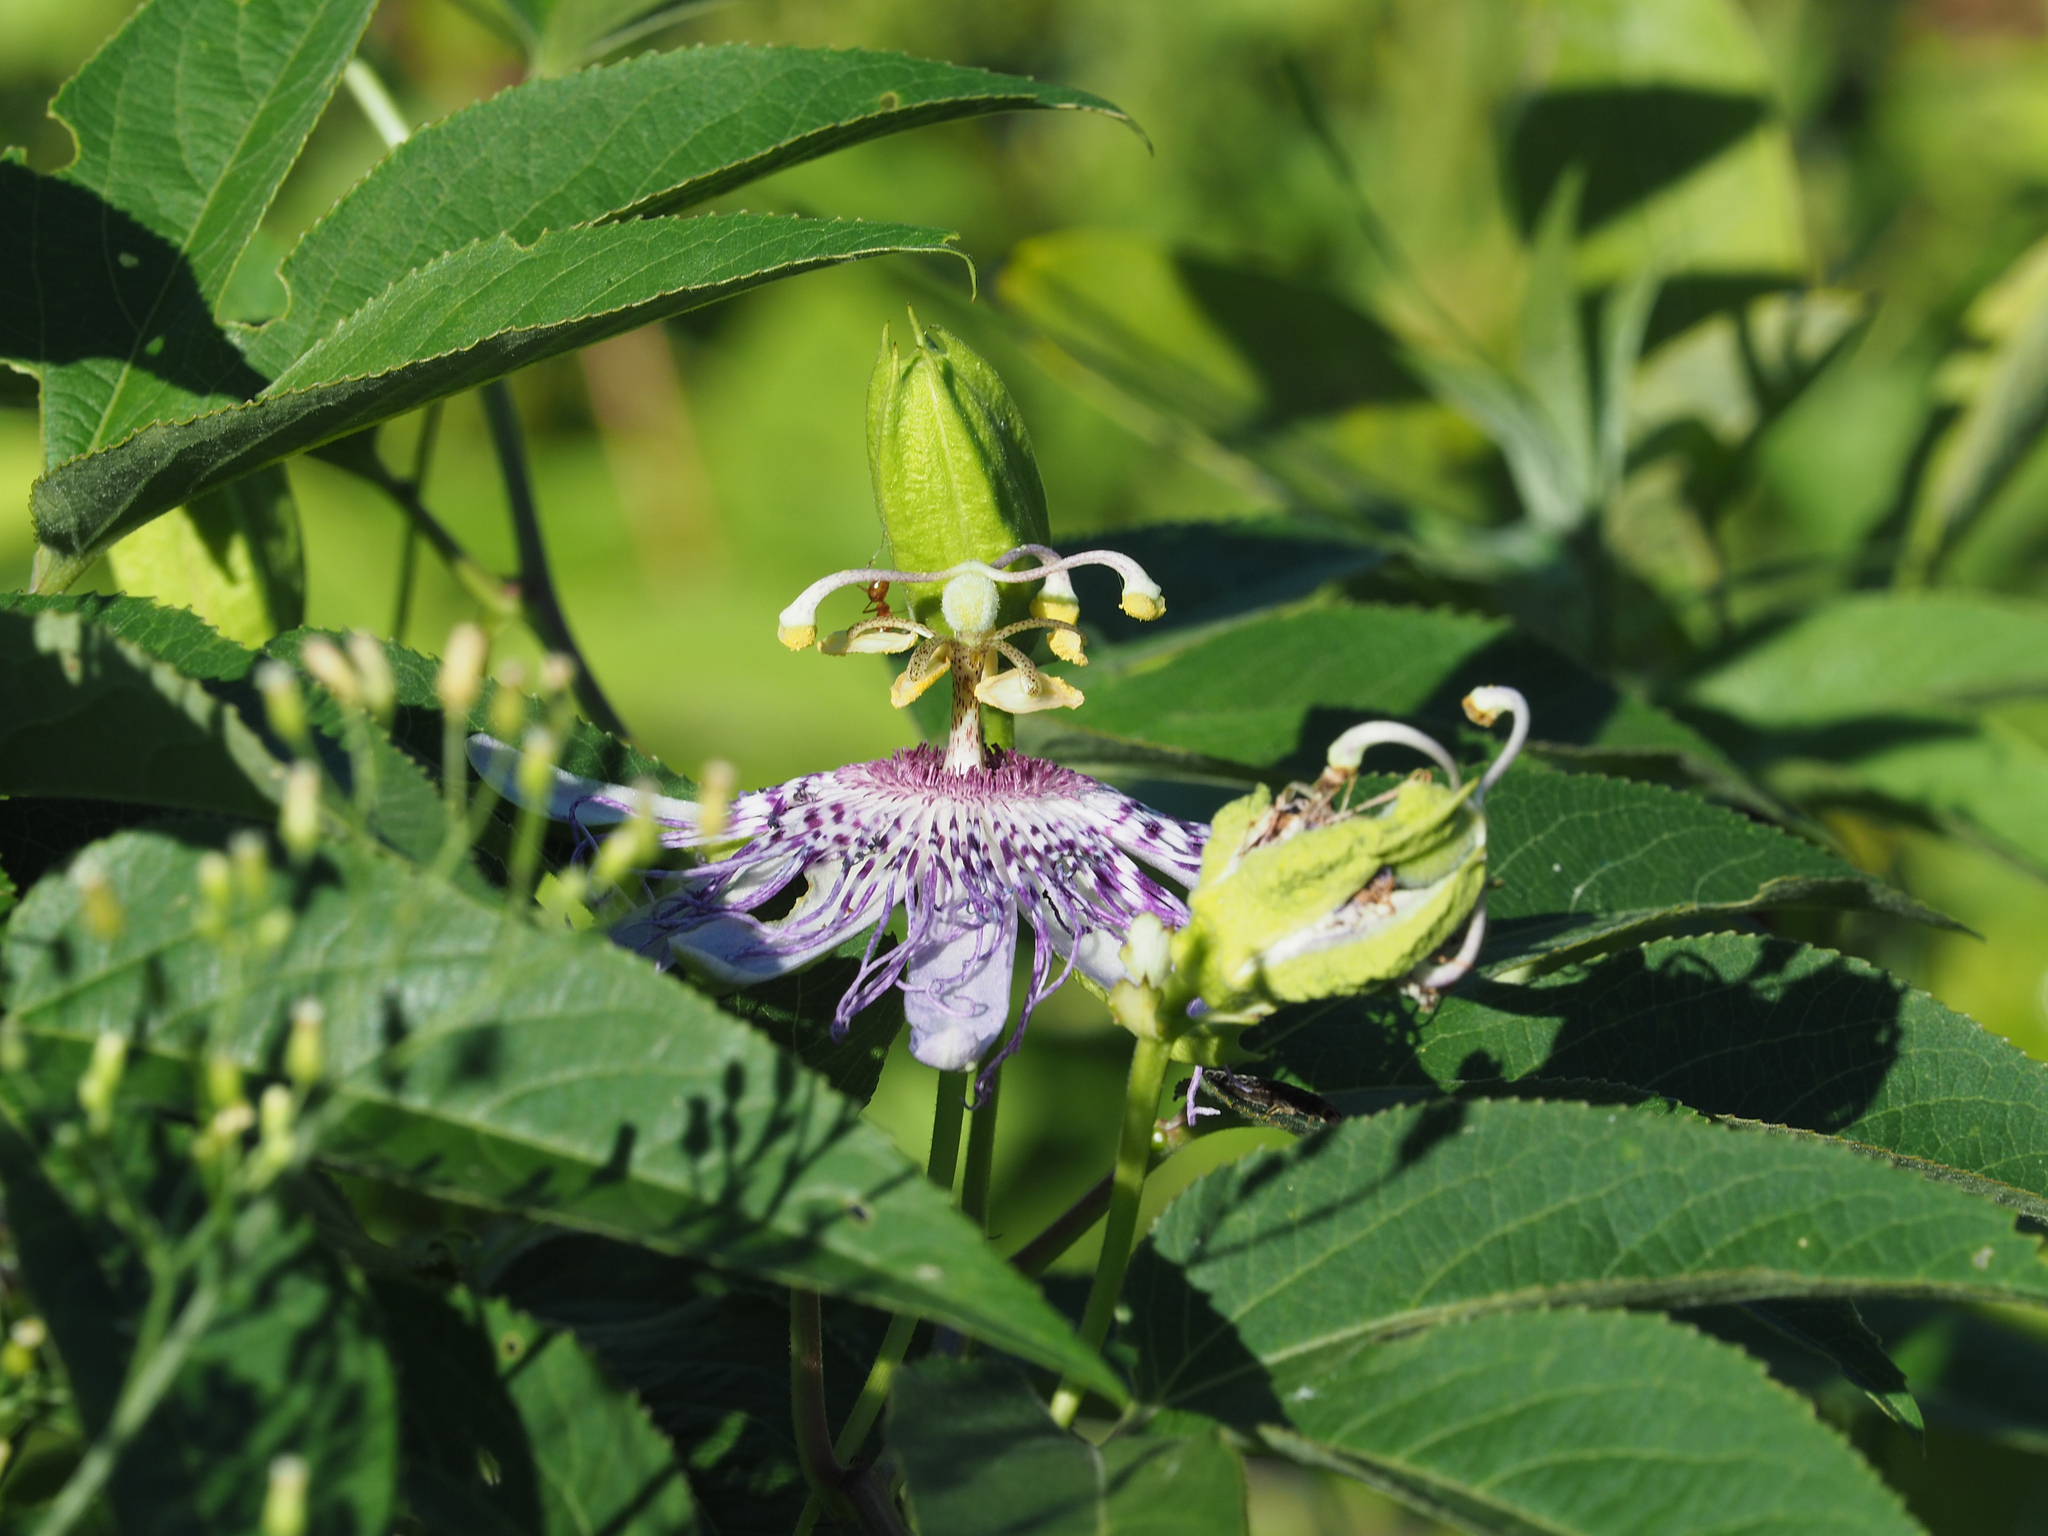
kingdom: Plantae
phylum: Tracheophyta
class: Magnoliopsida
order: Malpighiales
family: Passifloraceae
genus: Passiflora
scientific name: Passiflora incarnata
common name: Apricot-vine
